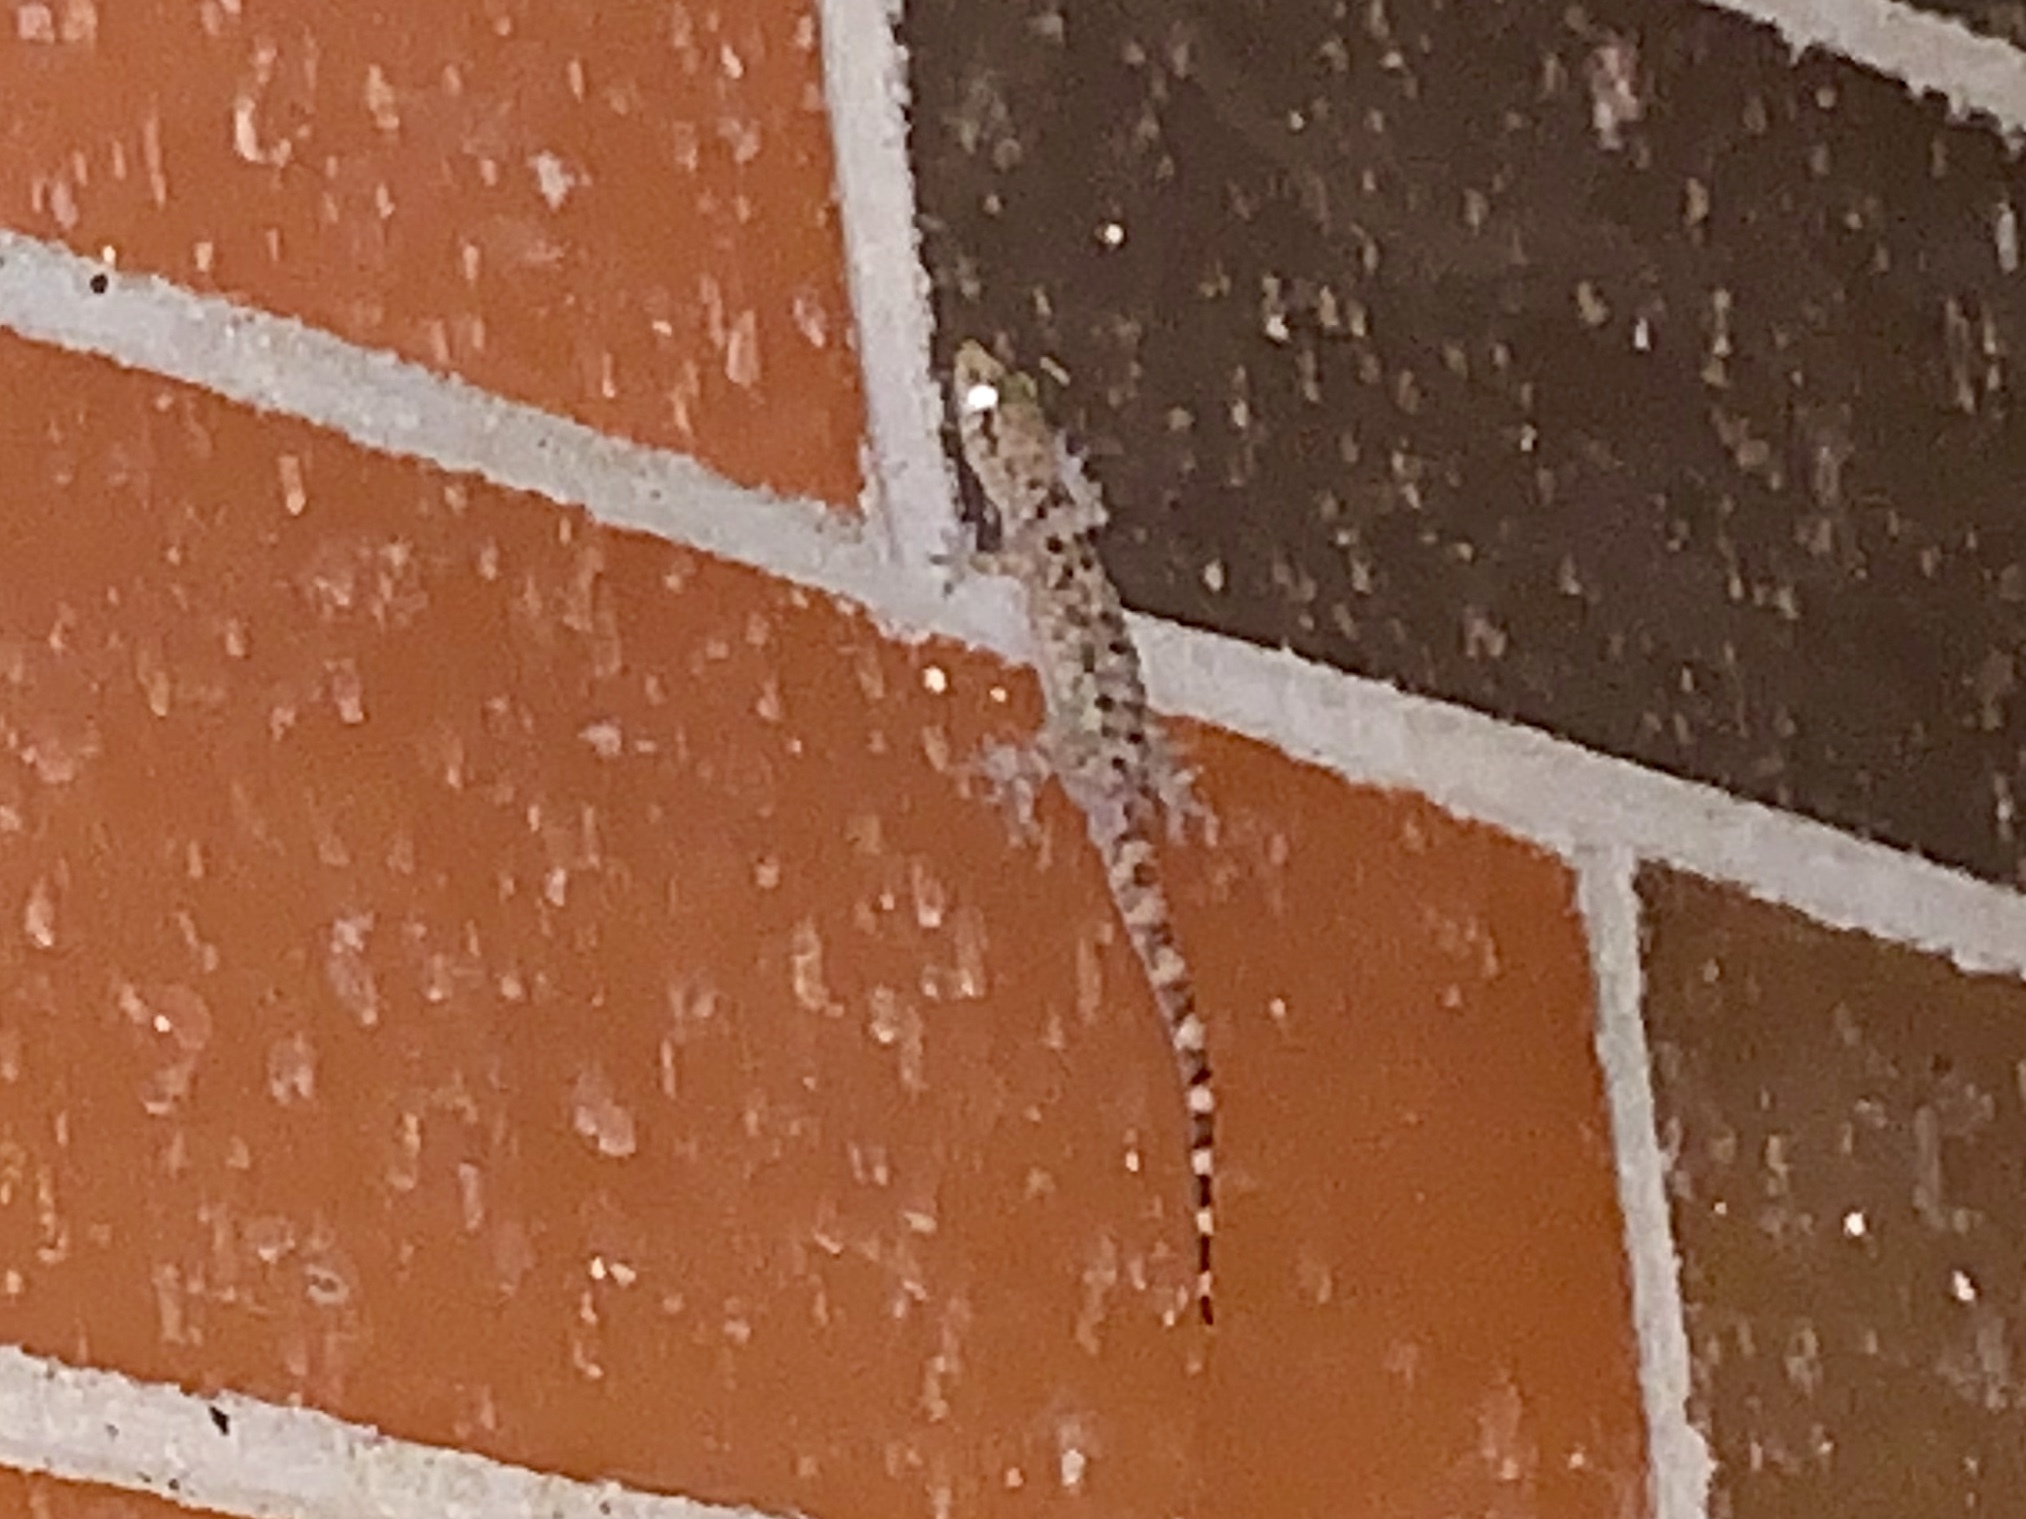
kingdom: Animalia
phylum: Chordata
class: Squamata
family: Gekkonidae
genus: Hemidactylus
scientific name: Hemidactylus turcicus
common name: Turkish gecko
